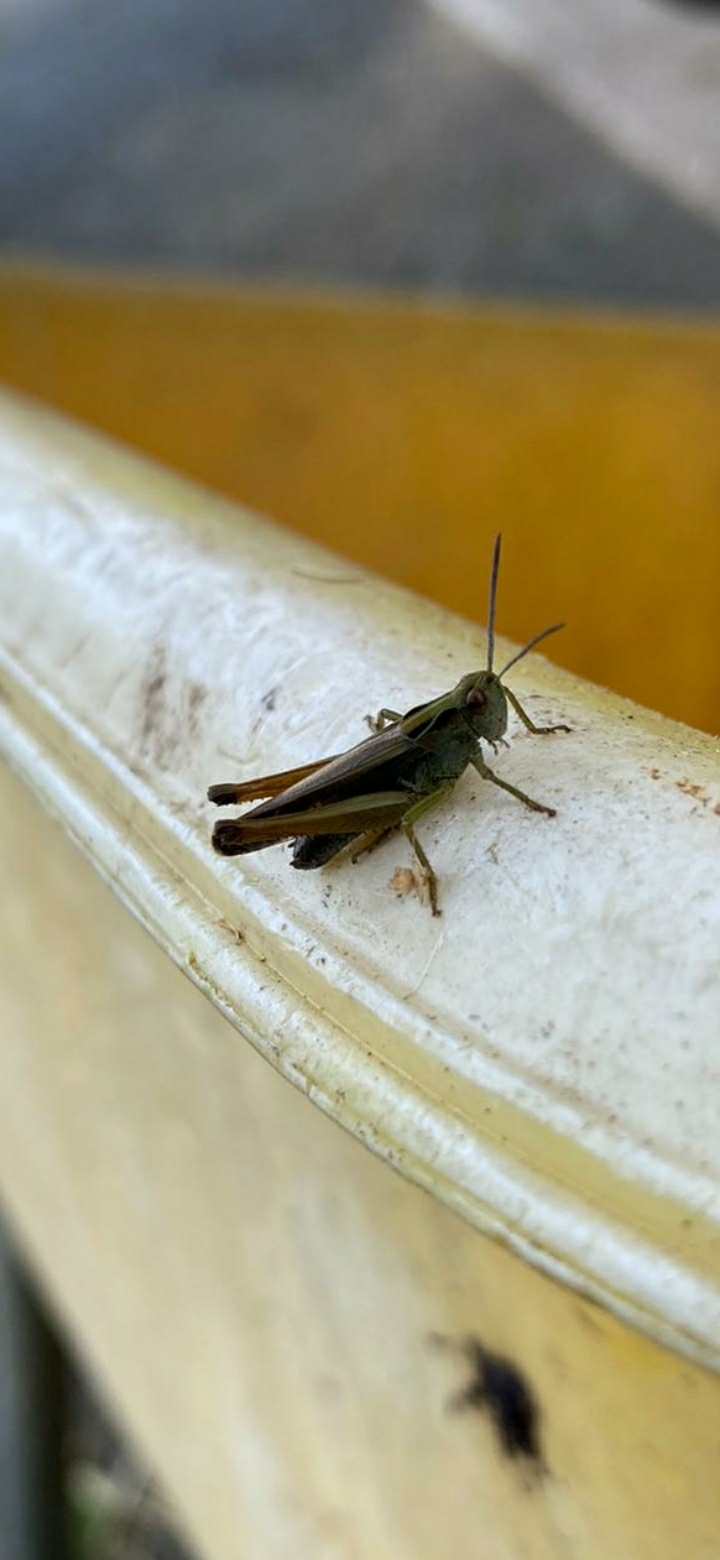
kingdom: Animalia
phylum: Arthropoda
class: Insecta
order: Orthoptera
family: Acrididae
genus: Omocestus
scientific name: Omocestus viridulus
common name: Common green grasshopper
